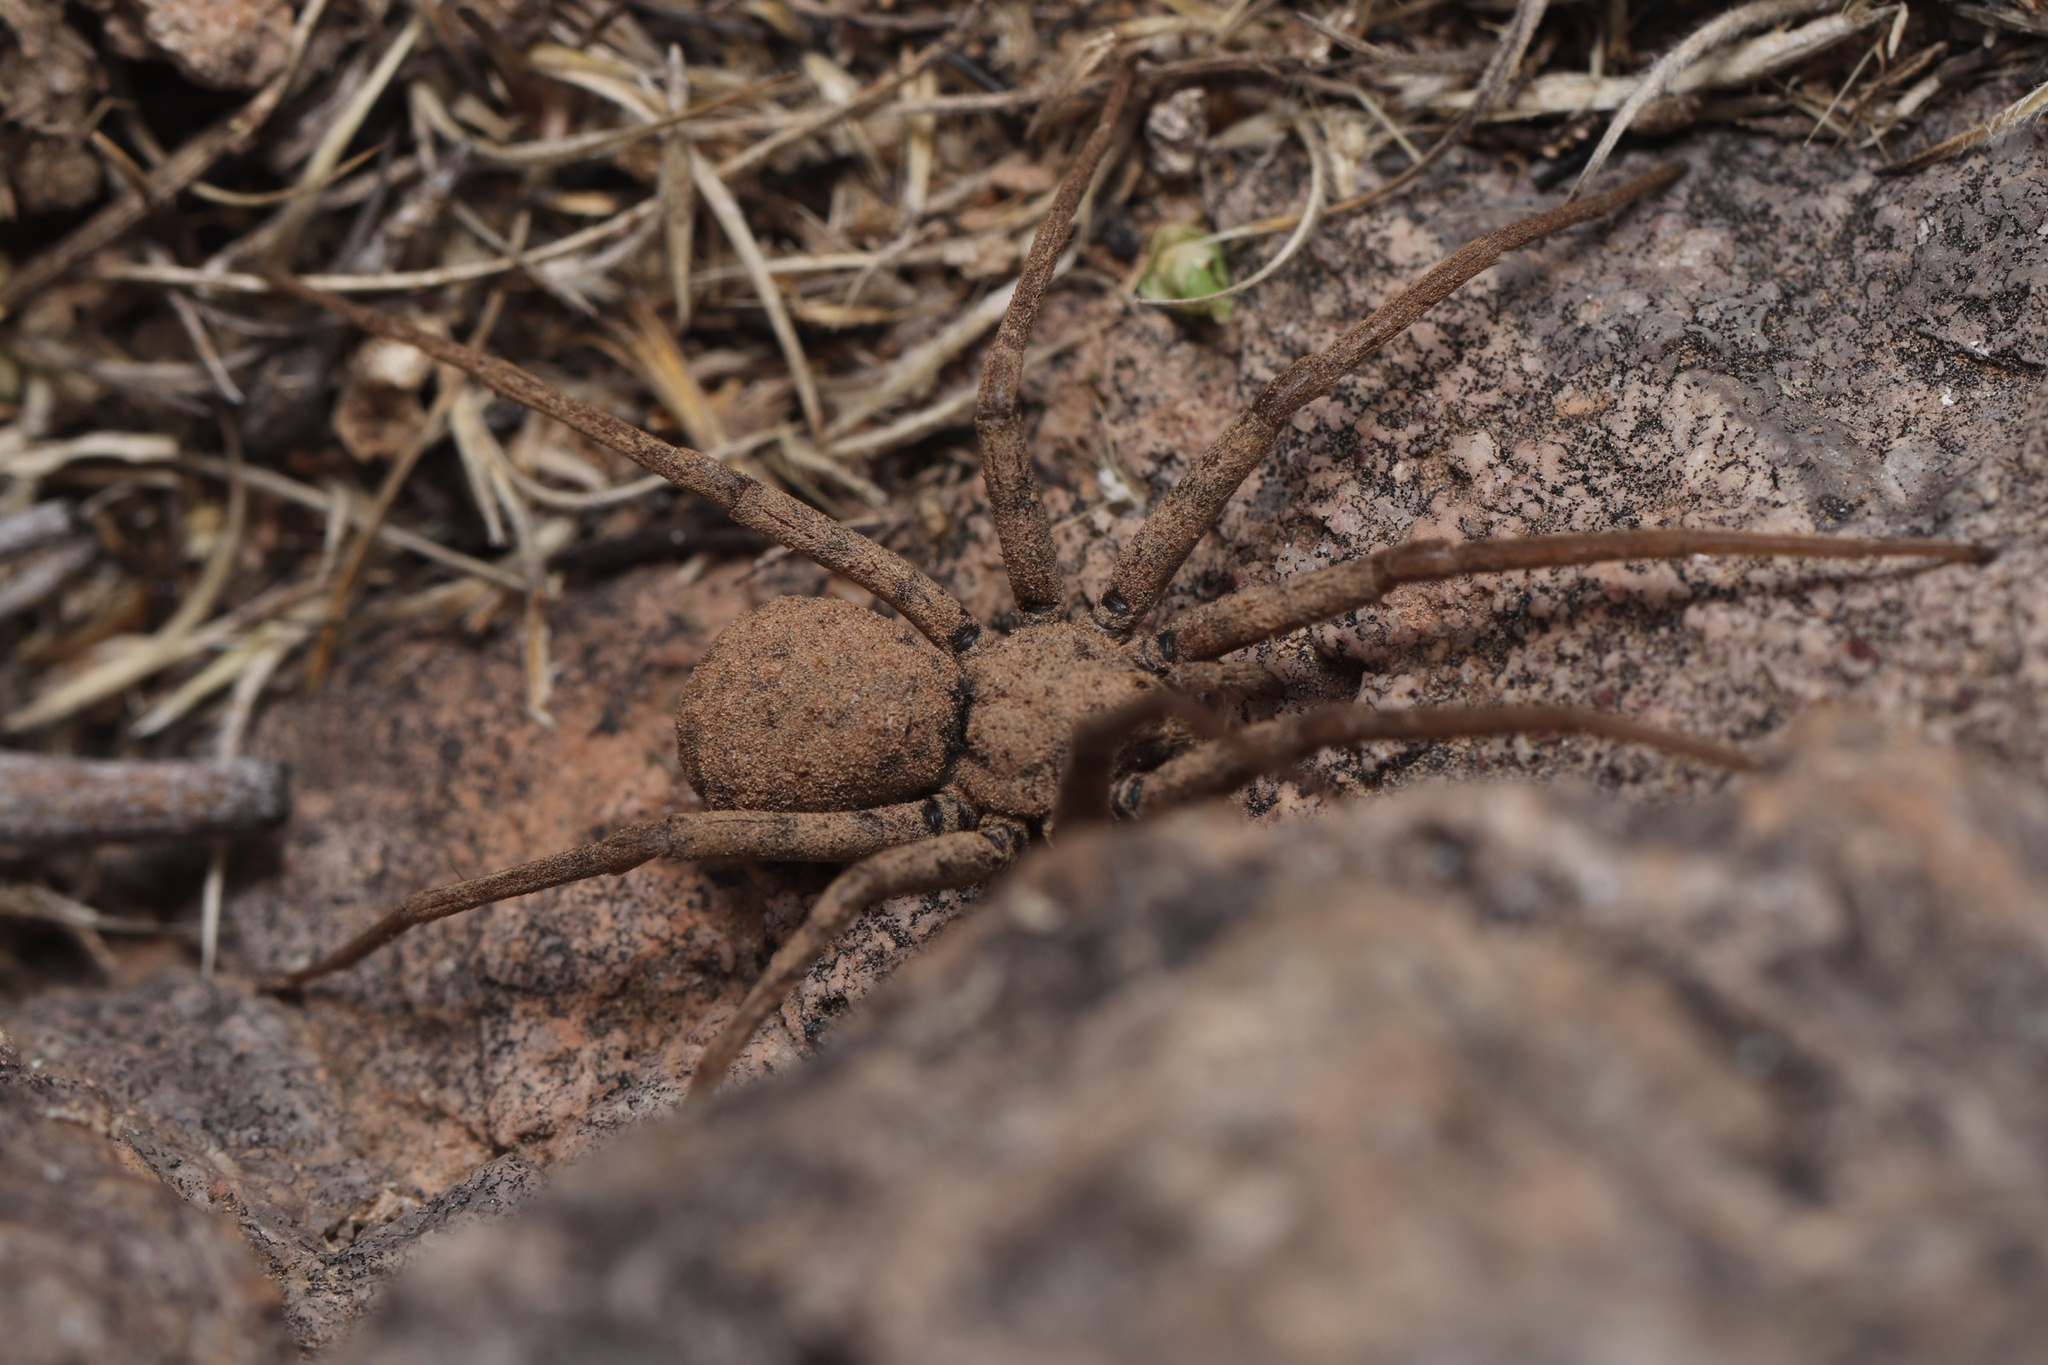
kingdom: Animalia
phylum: Arthropoda
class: Arachnida
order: Araneae
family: Homalonychidae
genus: Homalonychus
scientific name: Homalonychus selenopoides
